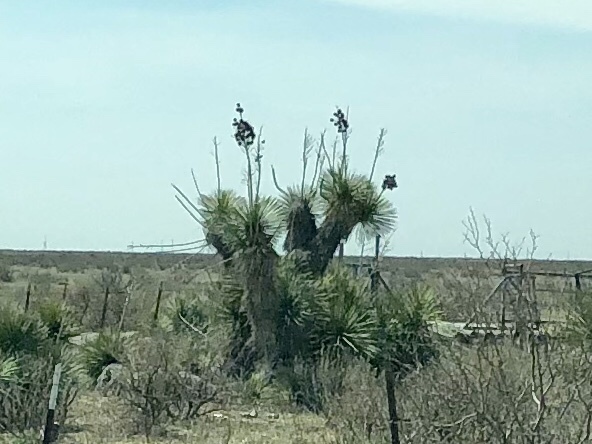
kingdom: Plantae
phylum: Tracheophyta
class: Liliopsida
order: Asparagales
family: Asparagaceae
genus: Yucca
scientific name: Yucca elata
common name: Palmella
